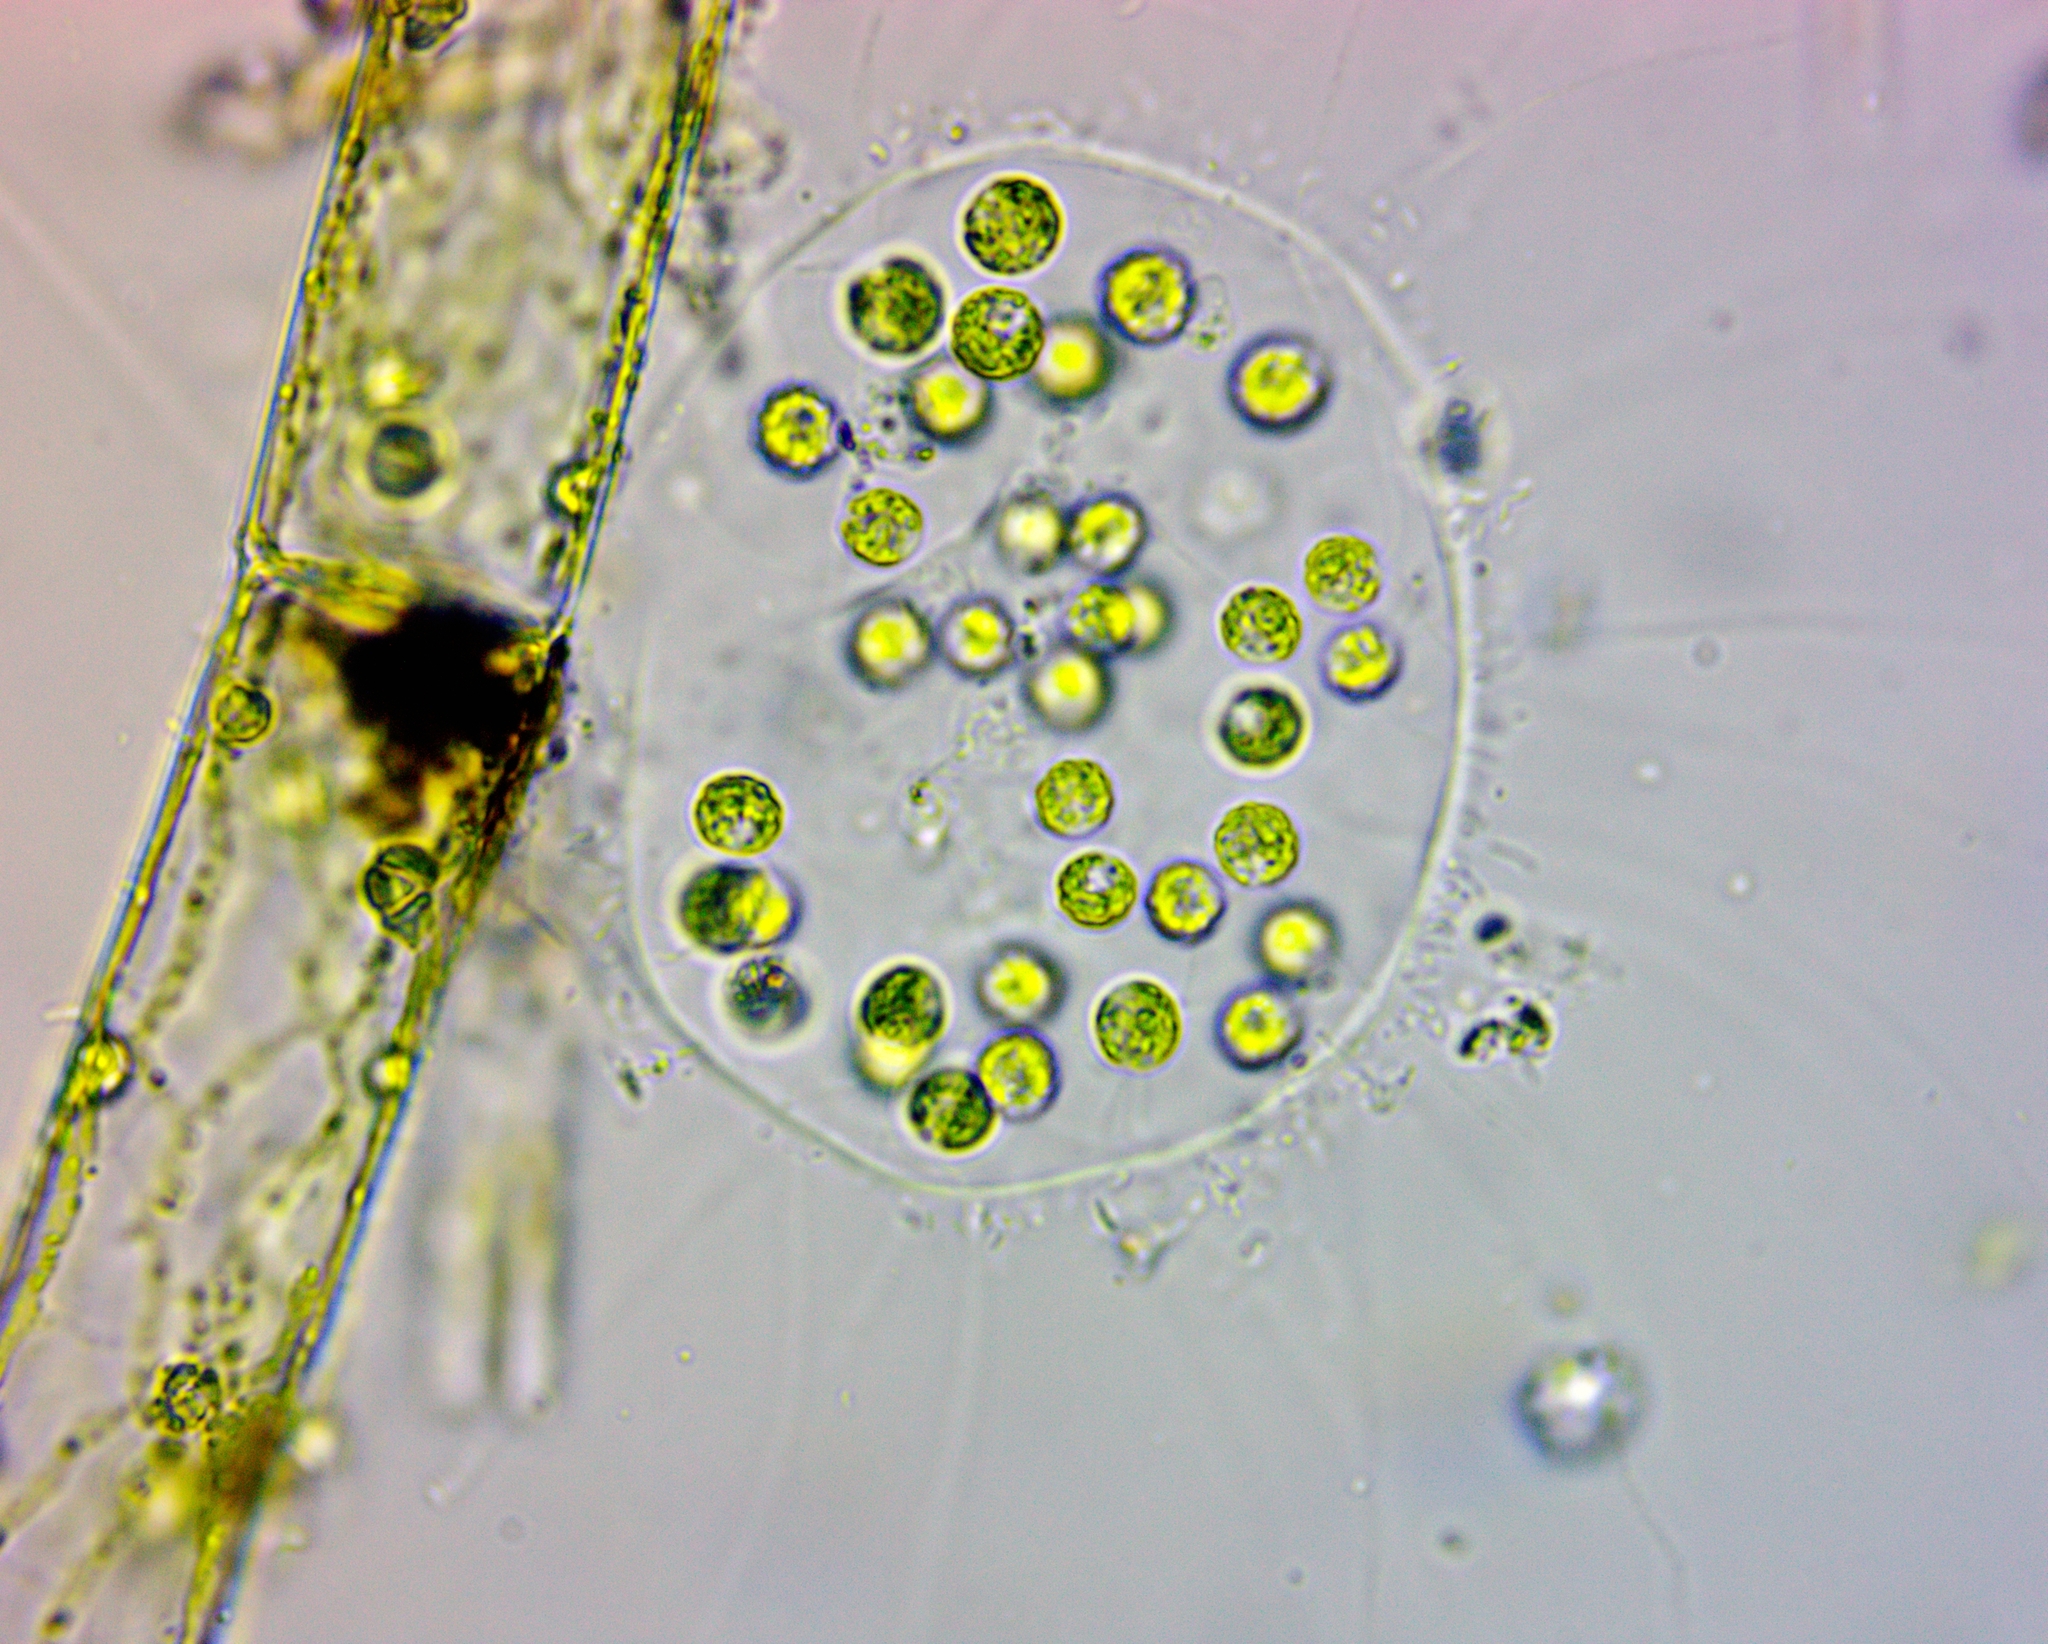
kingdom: Plantae
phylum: Chlorophyta
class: Chlorophyceae
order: Tetrasporales
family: Tetrasporaceae
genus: Apiocystis
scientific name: Apiocystis brauniana
